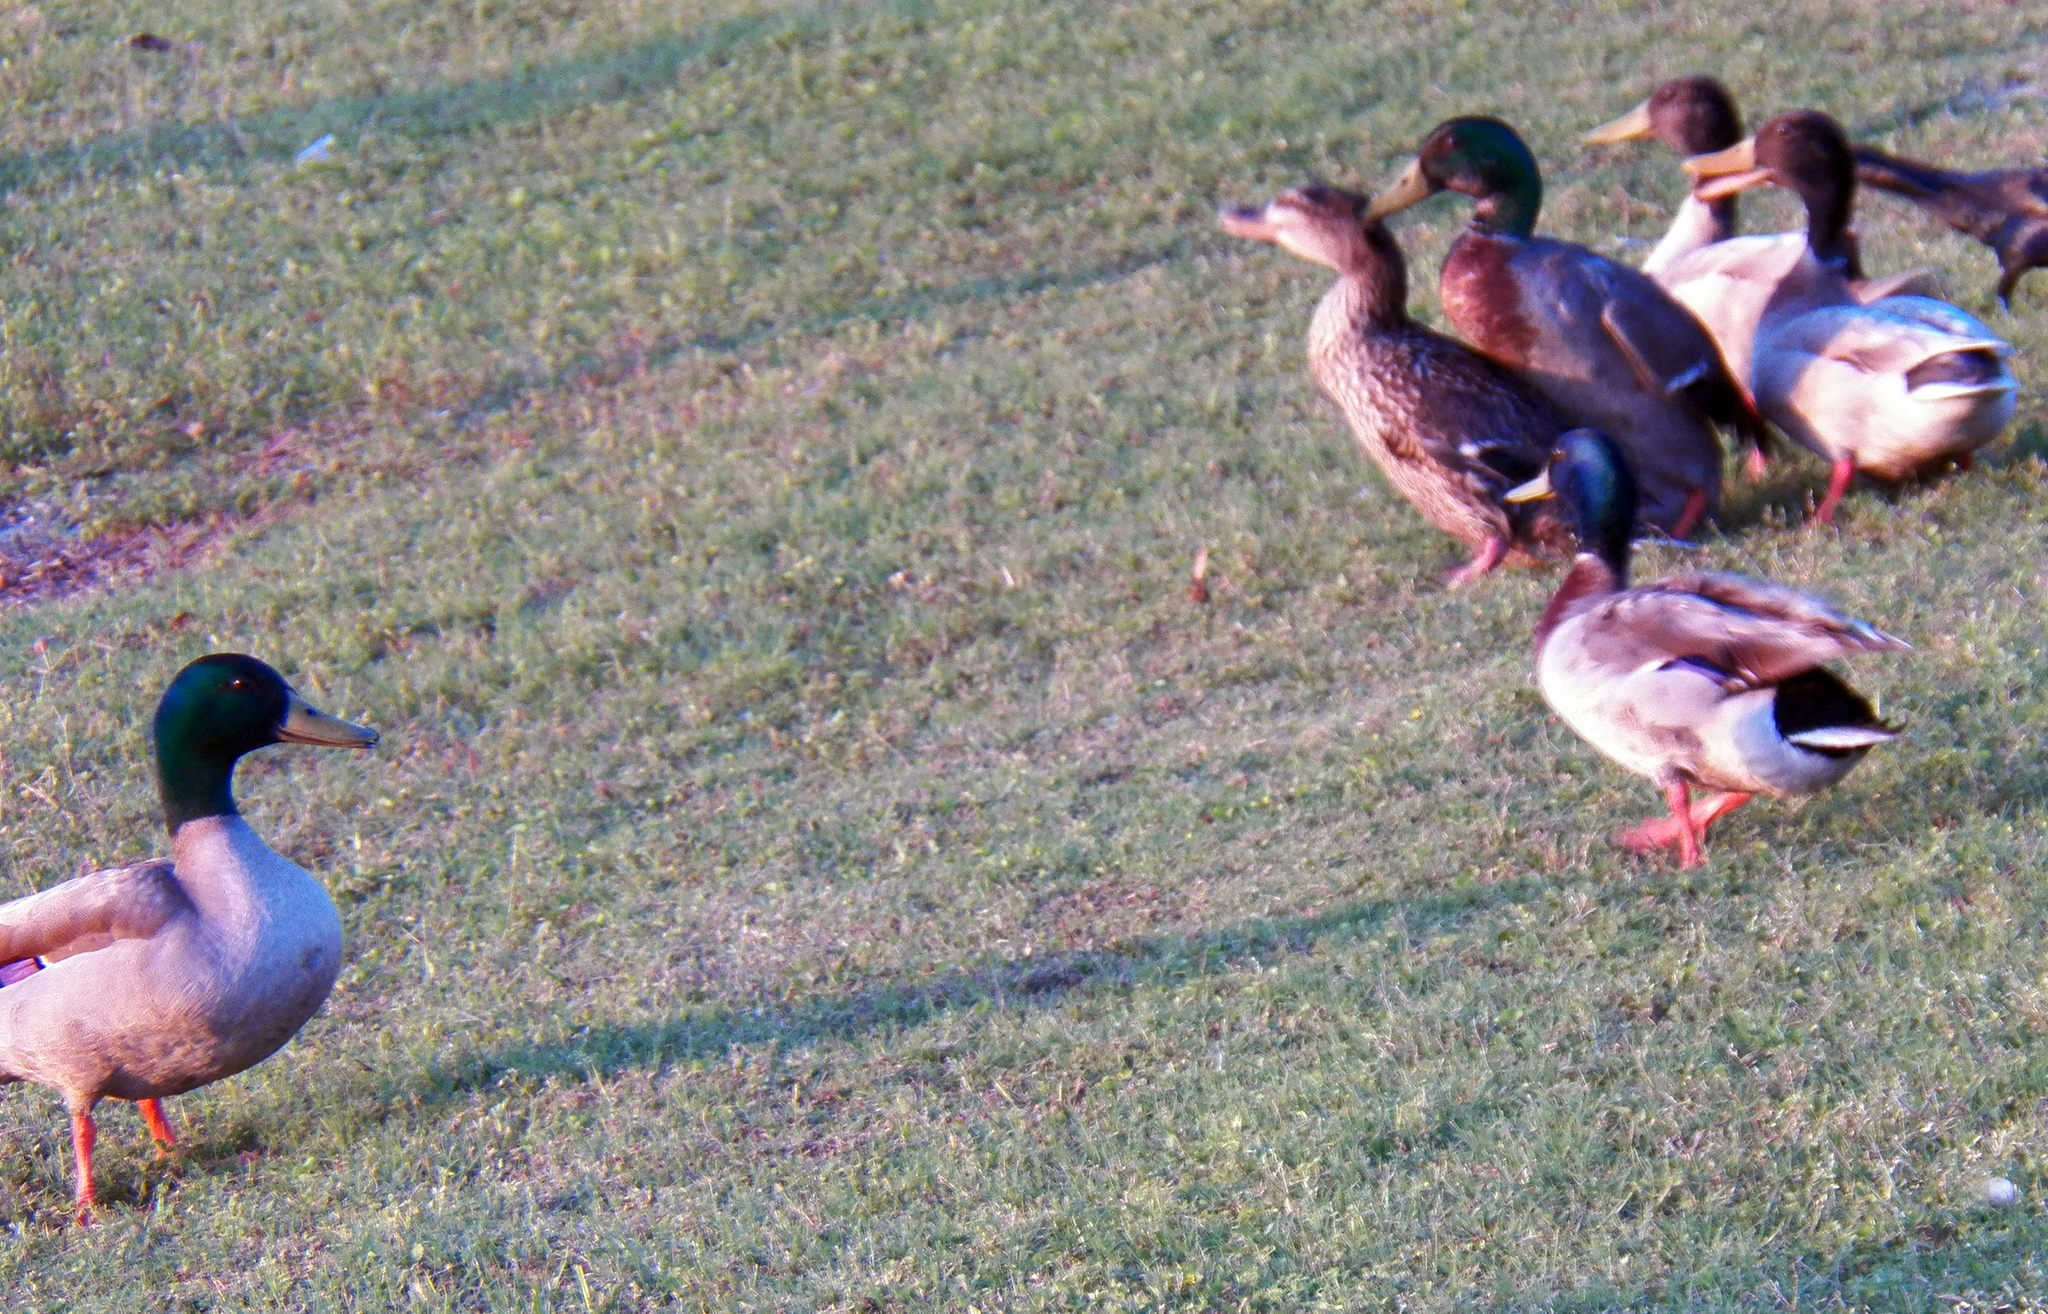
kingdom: Animalia
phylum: Chordata
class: Aves
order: Anseriformes
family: Anatidae
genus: Anas
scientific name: Anas platyrhynchos
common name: Mallard
